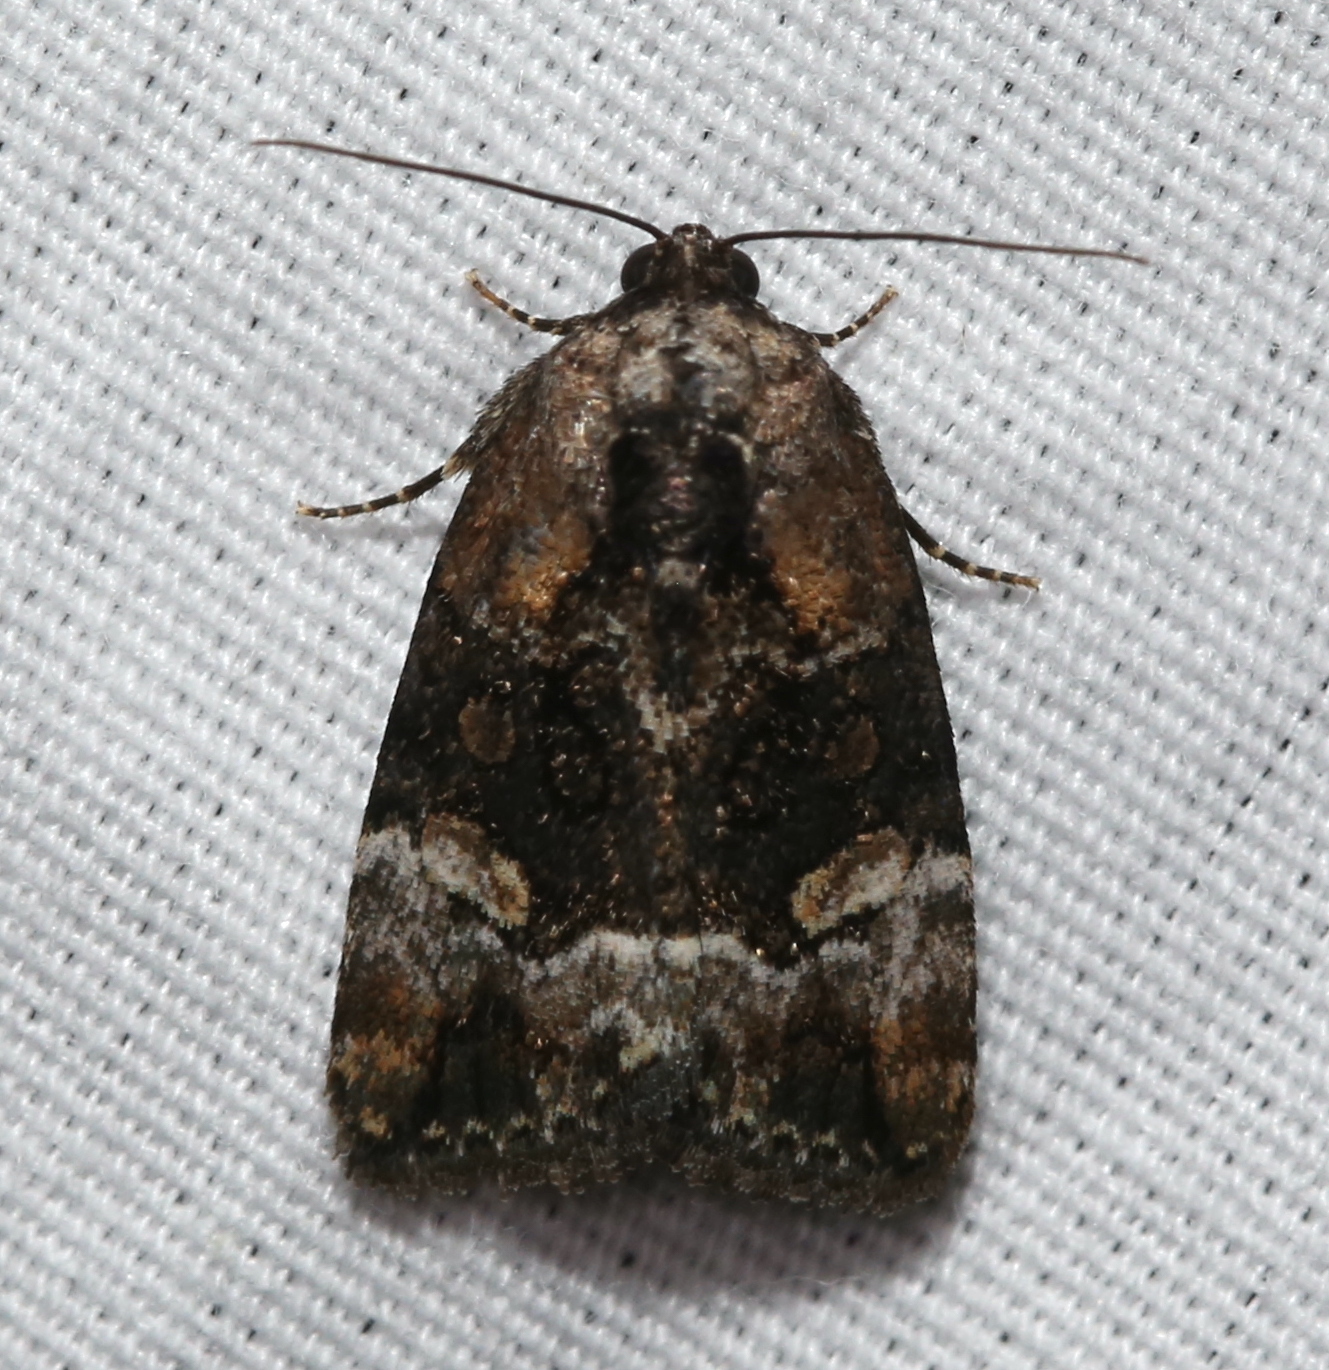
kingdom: Animalia
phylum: Arthropoda
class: Insecta
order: Lepidoptera
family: Noctuidae
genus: Elaphria
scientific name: Elaphria georgei
